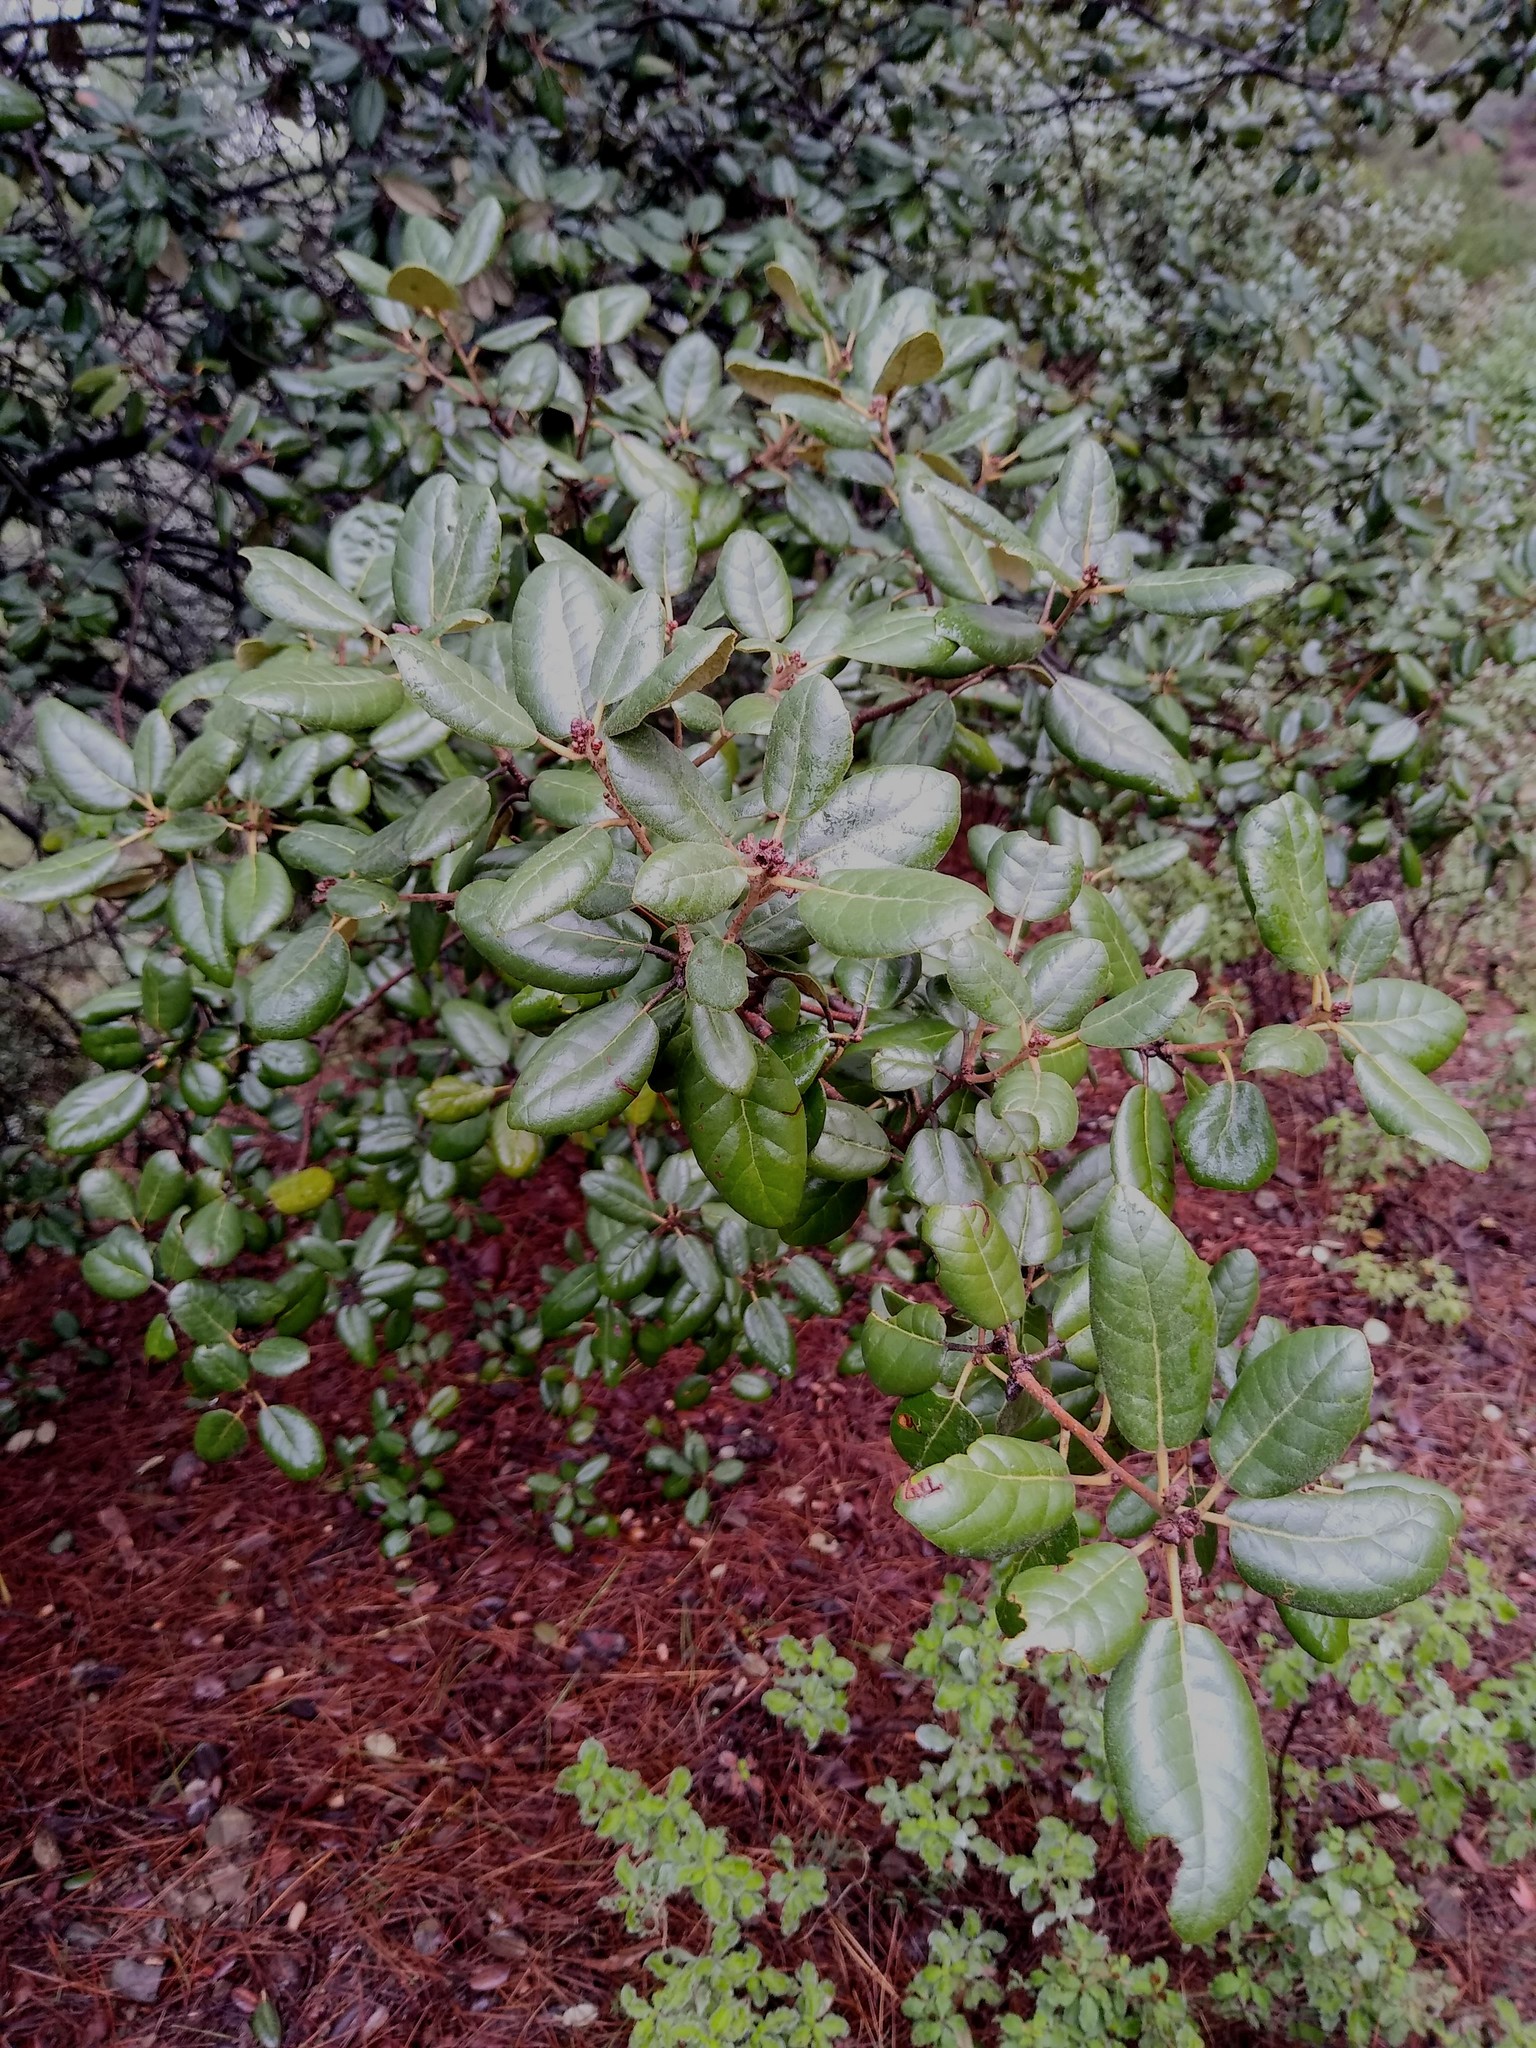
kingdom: Plantae
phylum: Tracheophyta
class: Magnoliopsida
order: Fagales
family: Fagaceae
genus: Quercus
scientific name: Quercus alnifolia
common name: Golden oak
